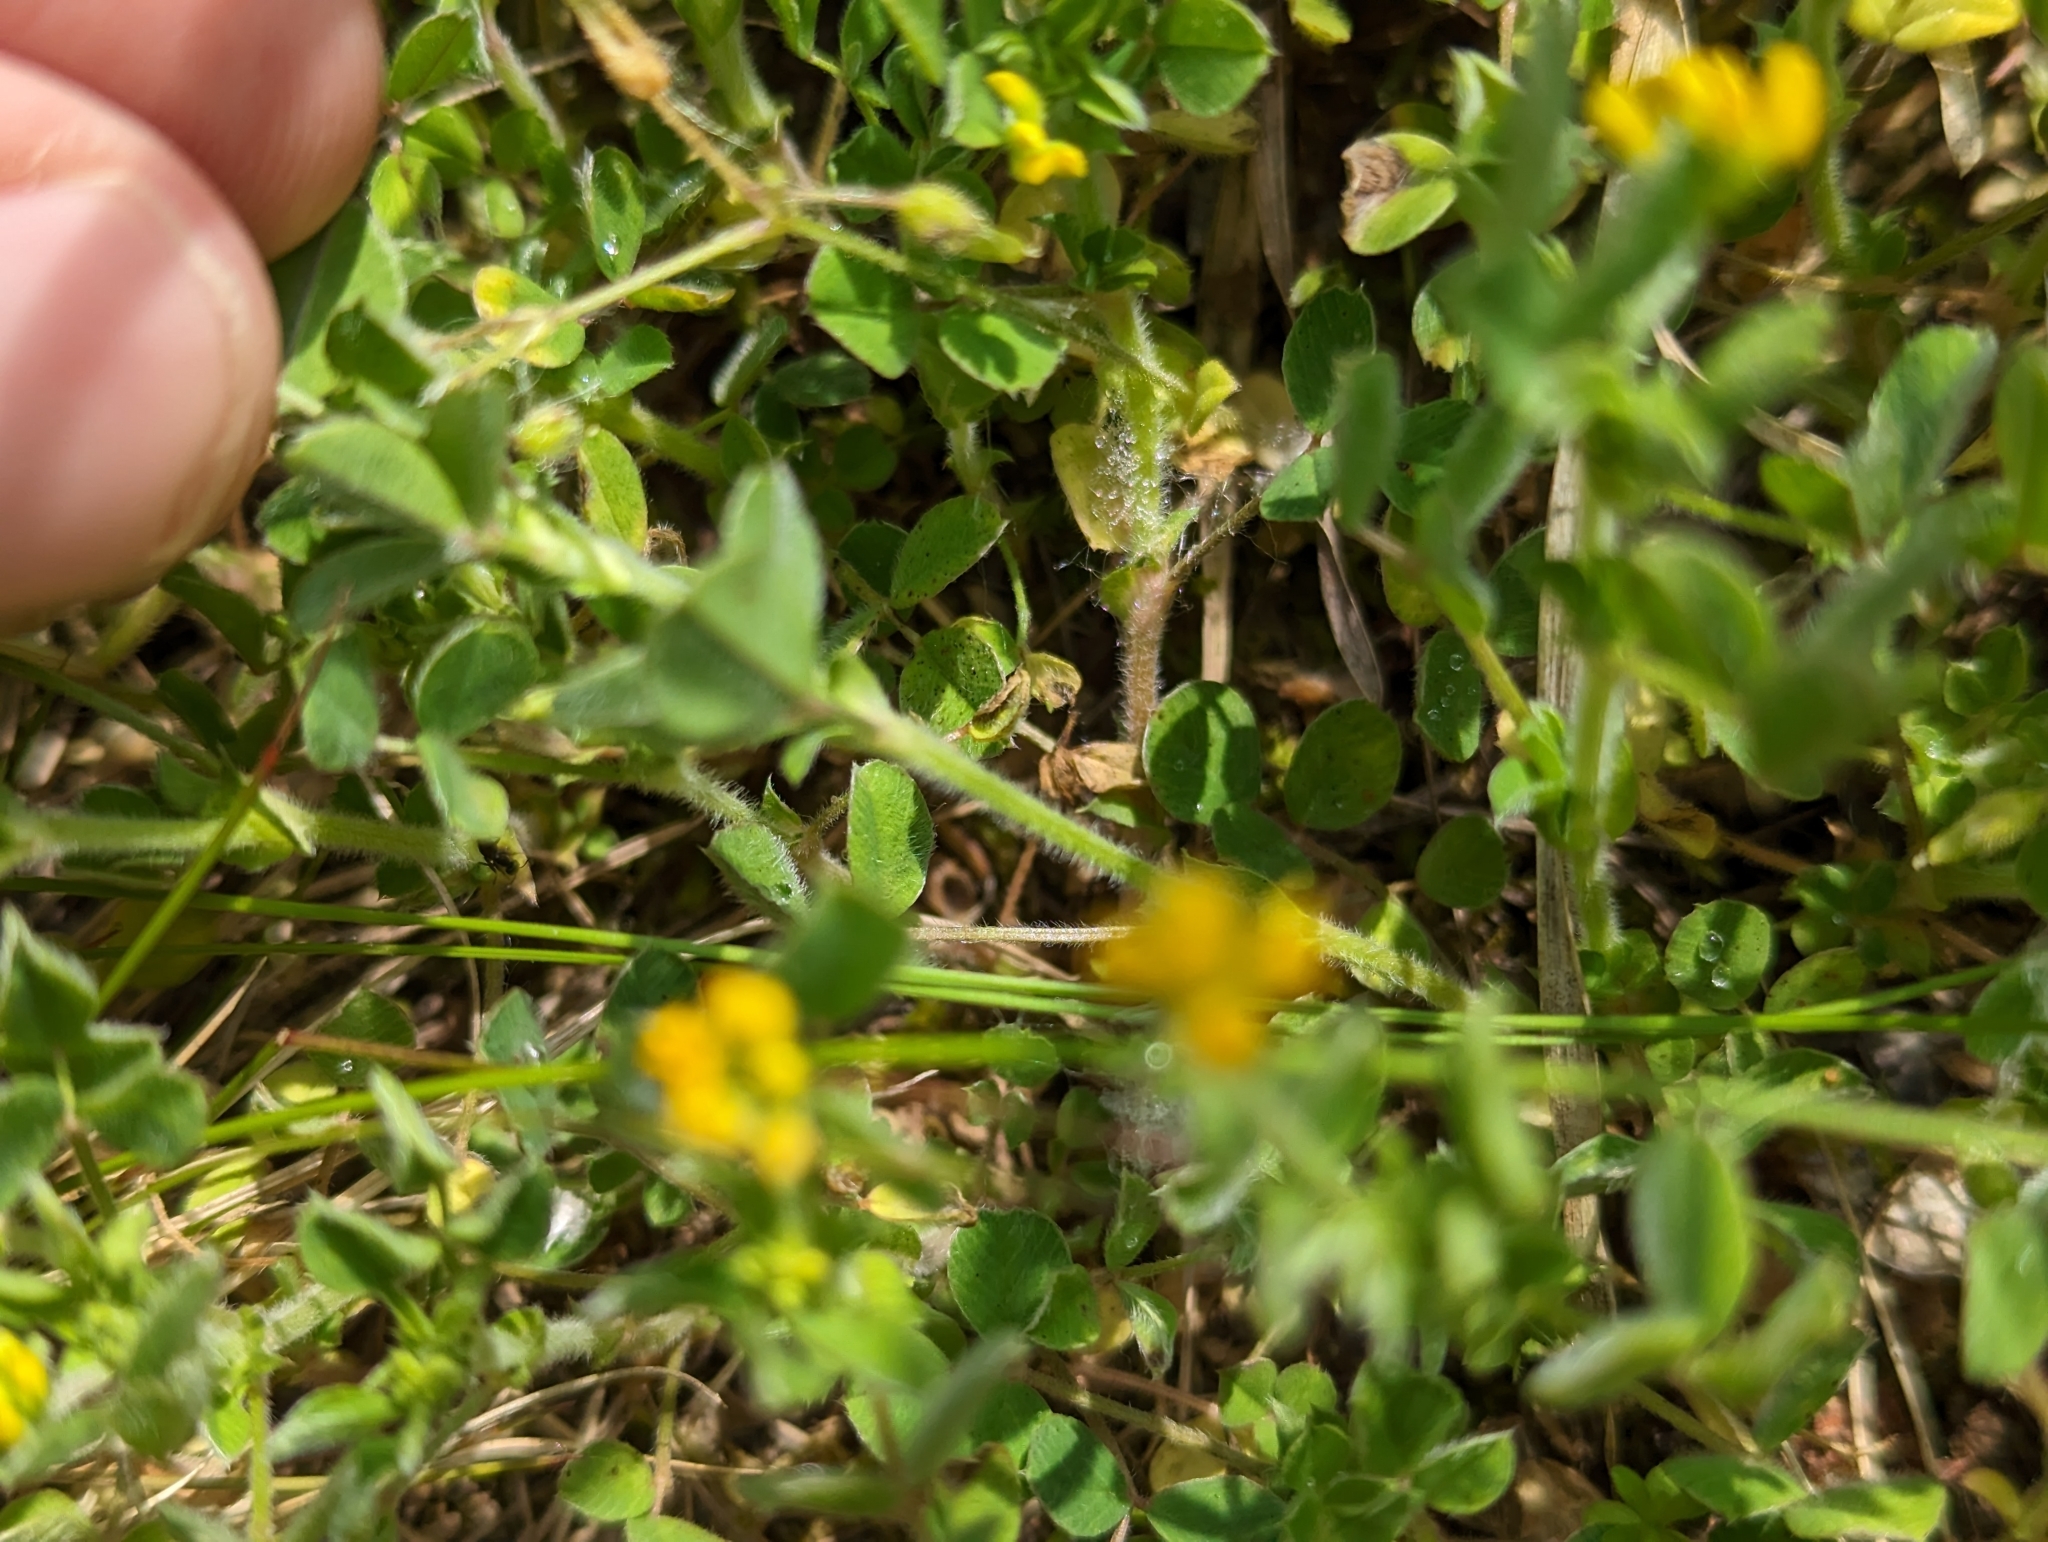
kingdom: Plantae
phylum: Tracheophyta
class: Magnoliopsida
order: Fabales
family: Fabaceae
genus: Medicago
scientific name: Medicago minima
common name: Little bur-clover
